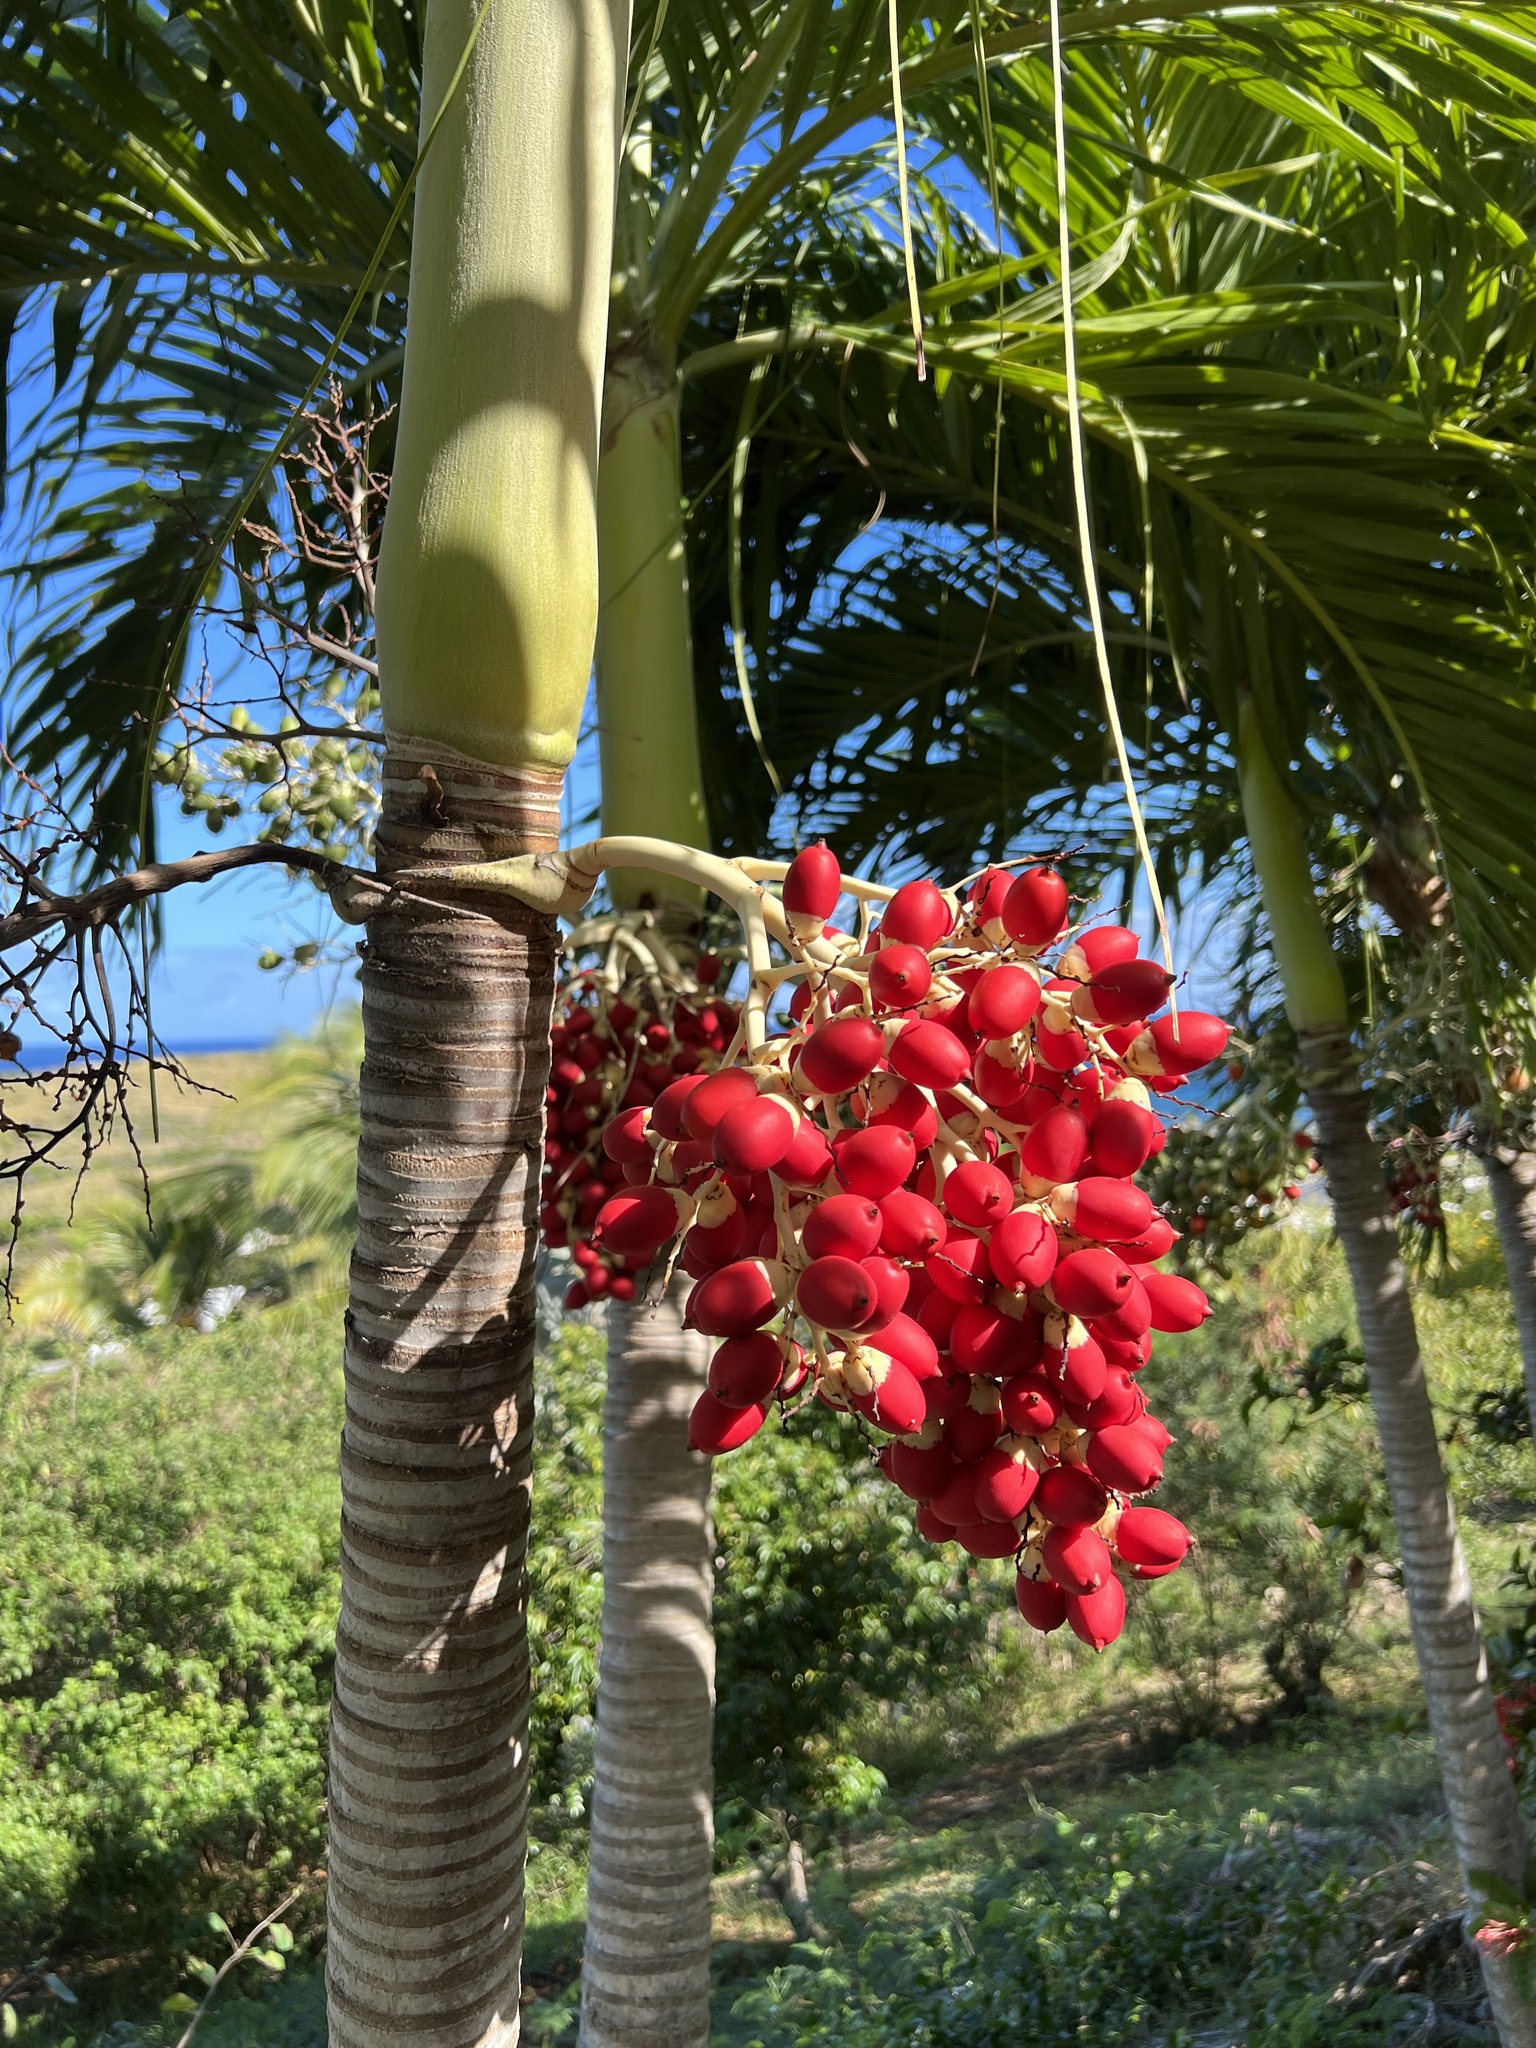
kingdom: Plantae
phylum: Tracheophyta
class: Liliopsida
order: Arecales
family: Arecaceae
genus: Adonidia
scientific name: Adonidia merrillii
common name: Manila palm
